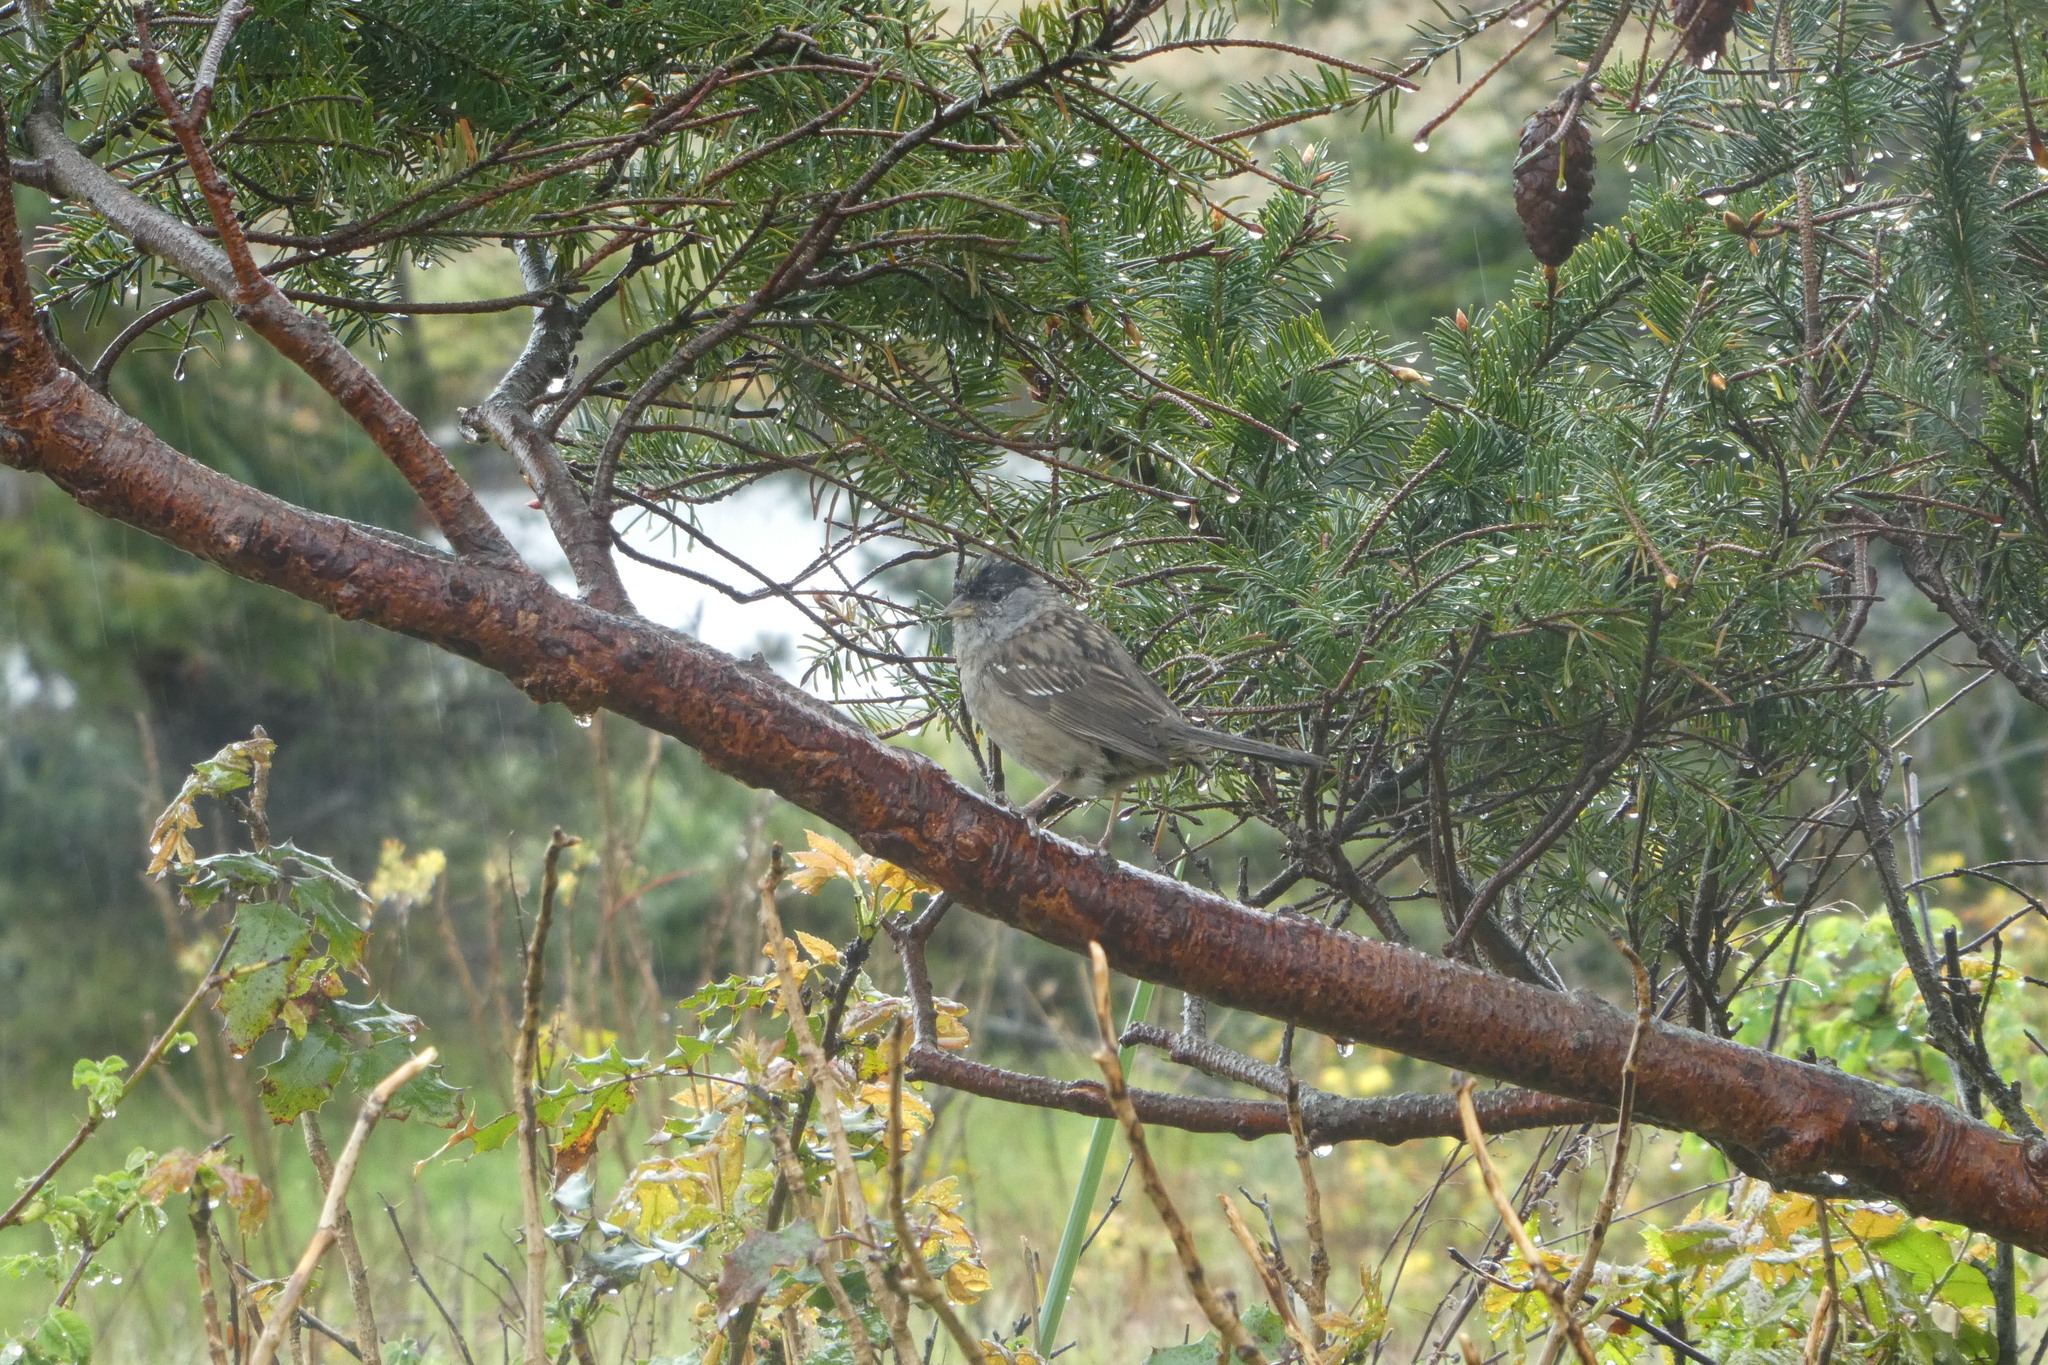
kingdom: Animalia
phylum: Chordata
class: Aves
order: Passeriformes
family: Passerellidae
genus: Zonotrichia
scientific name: Zonotrichia atricapilla
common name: Golden-crowned sparrow
